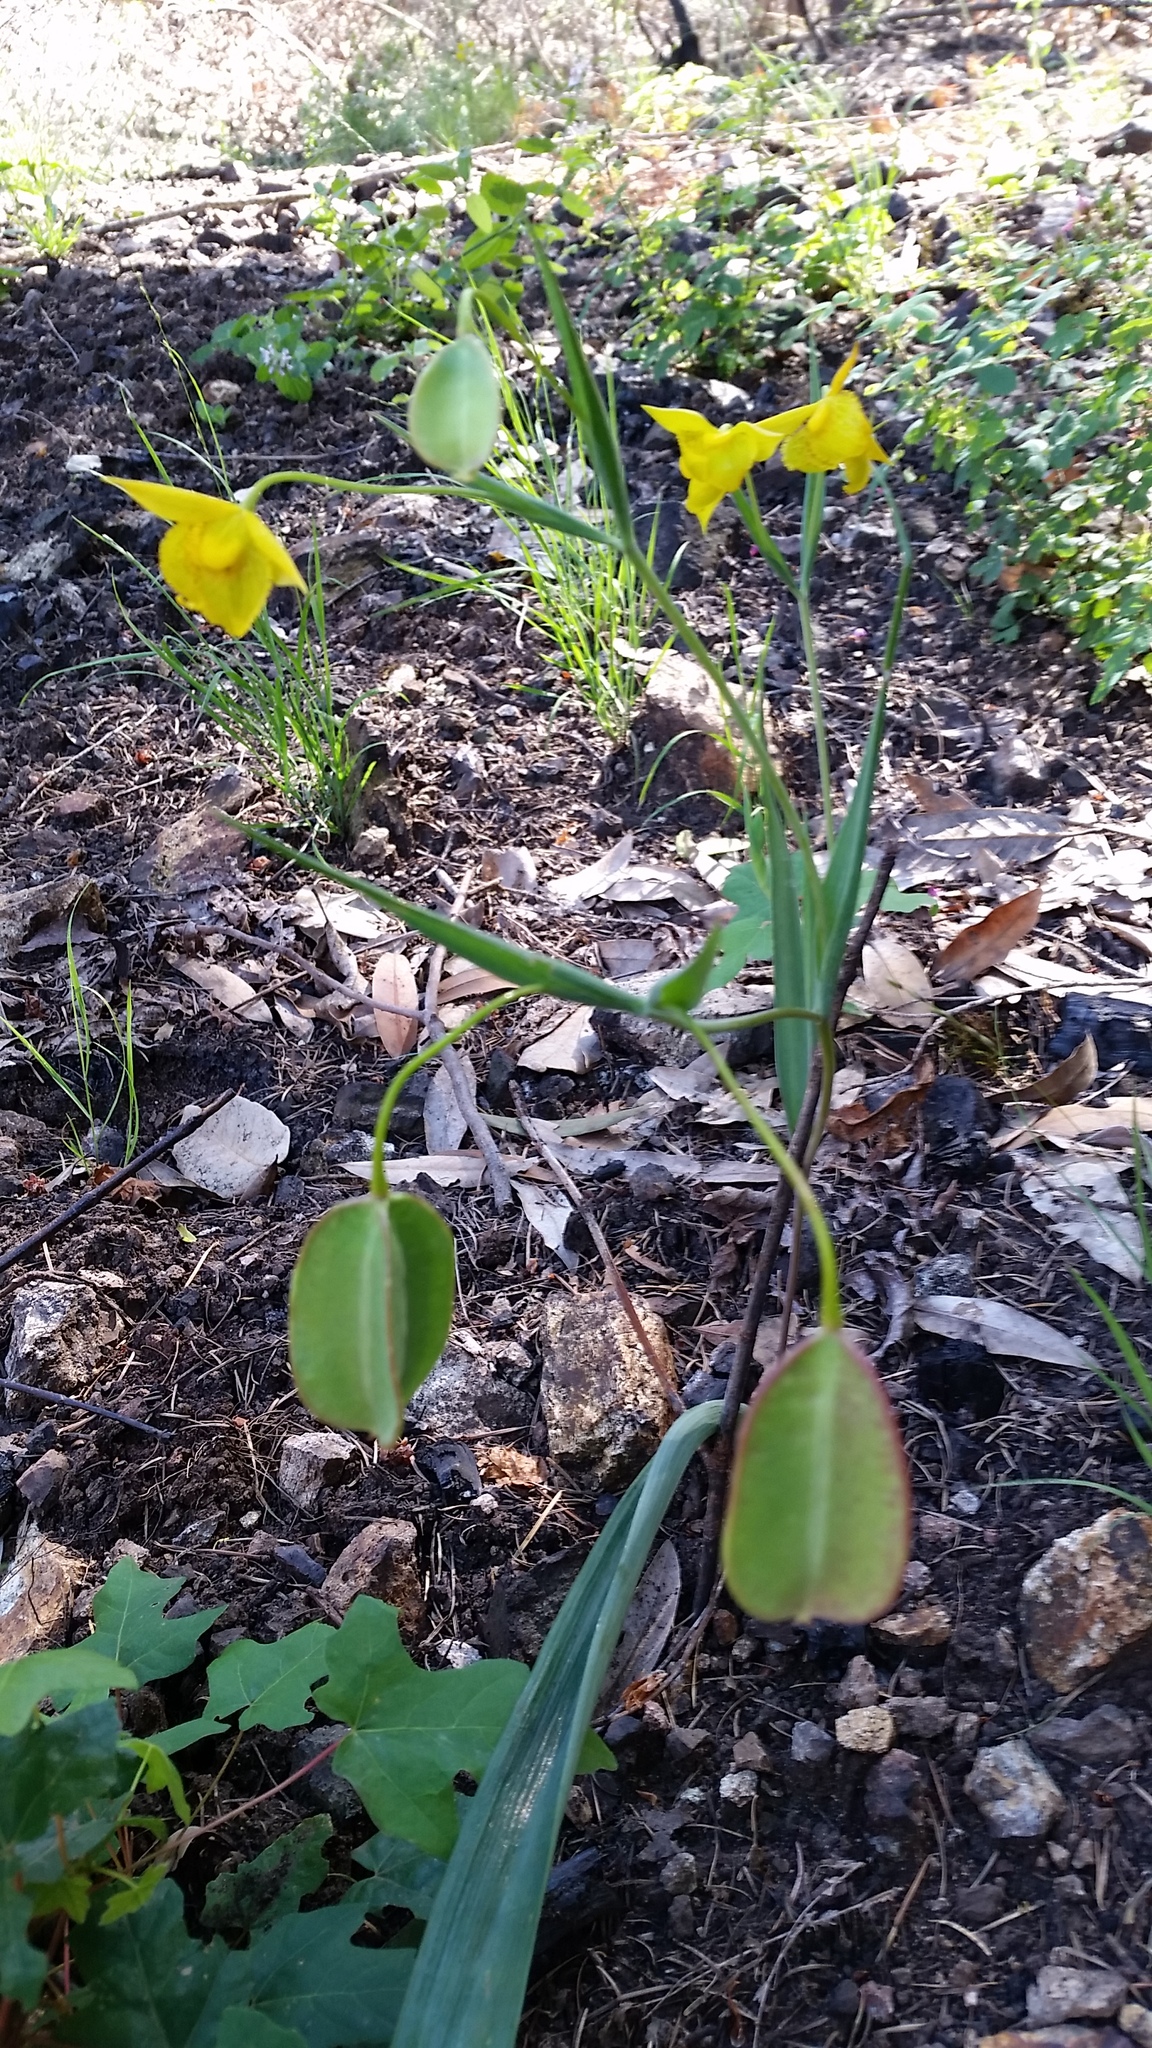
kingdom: Plantae
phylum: Tracheophyta
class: Liliopsida
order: Liliales
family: Liliaceae
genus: Calochortus
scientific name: Calochortus amabilis
